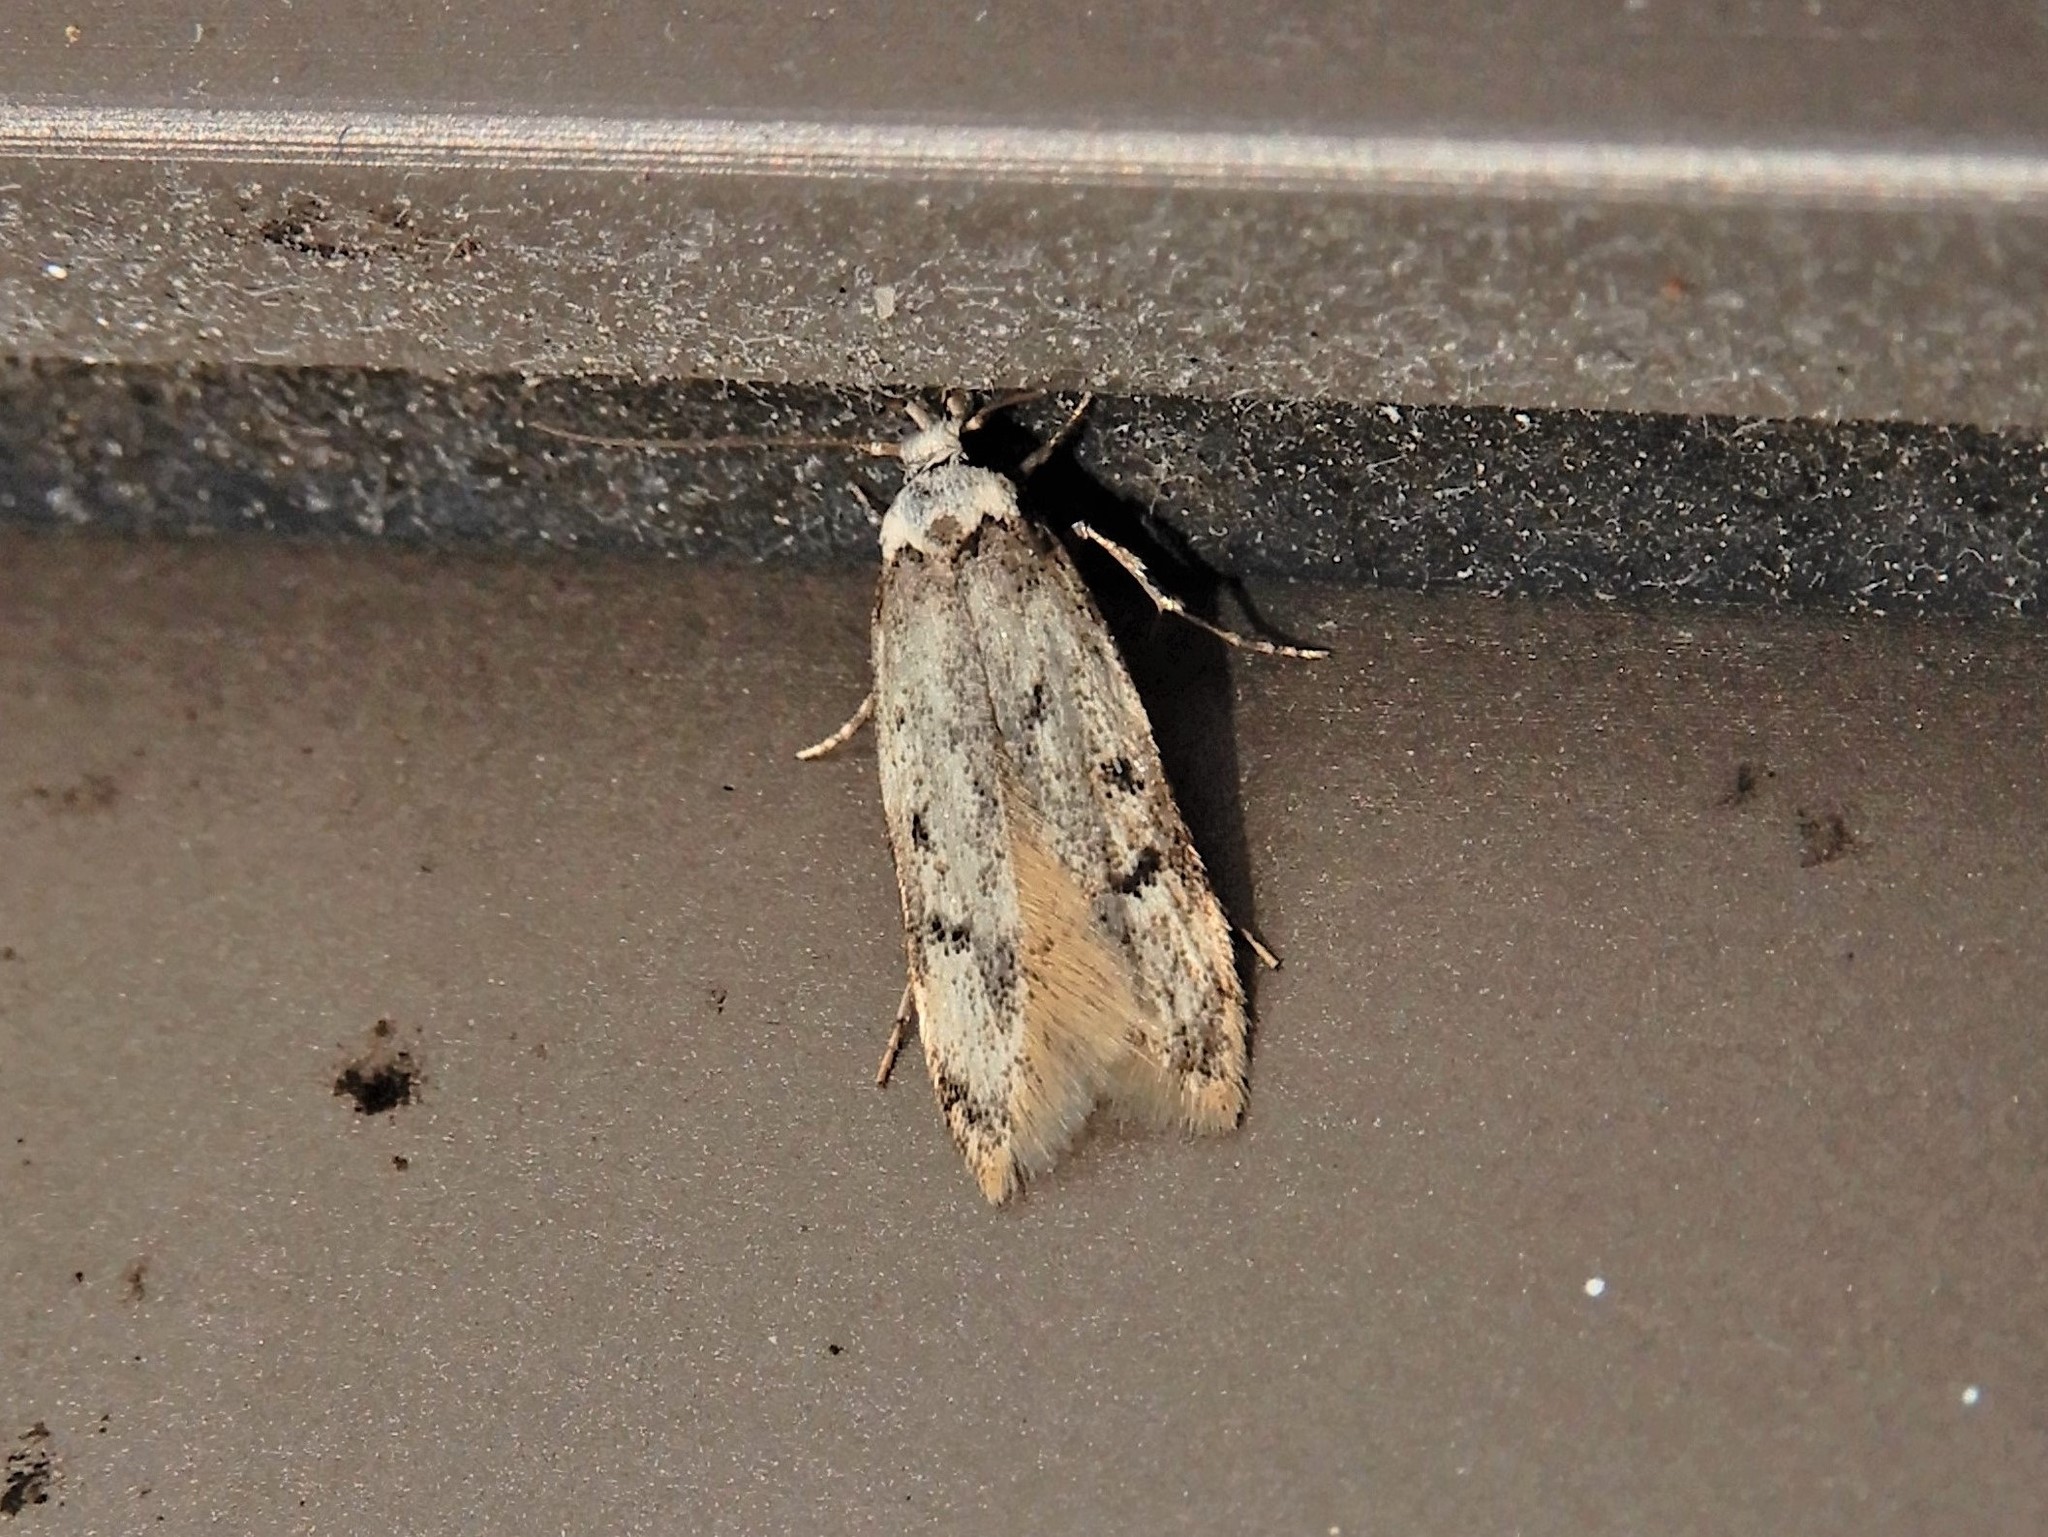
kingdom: Animalia
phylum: Arthropoda
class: Insecta
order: Lepidoptera
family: Oecophoridae
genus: Endrosis
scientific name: Endrosis sarcitrella
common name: White-shouldered house moth
